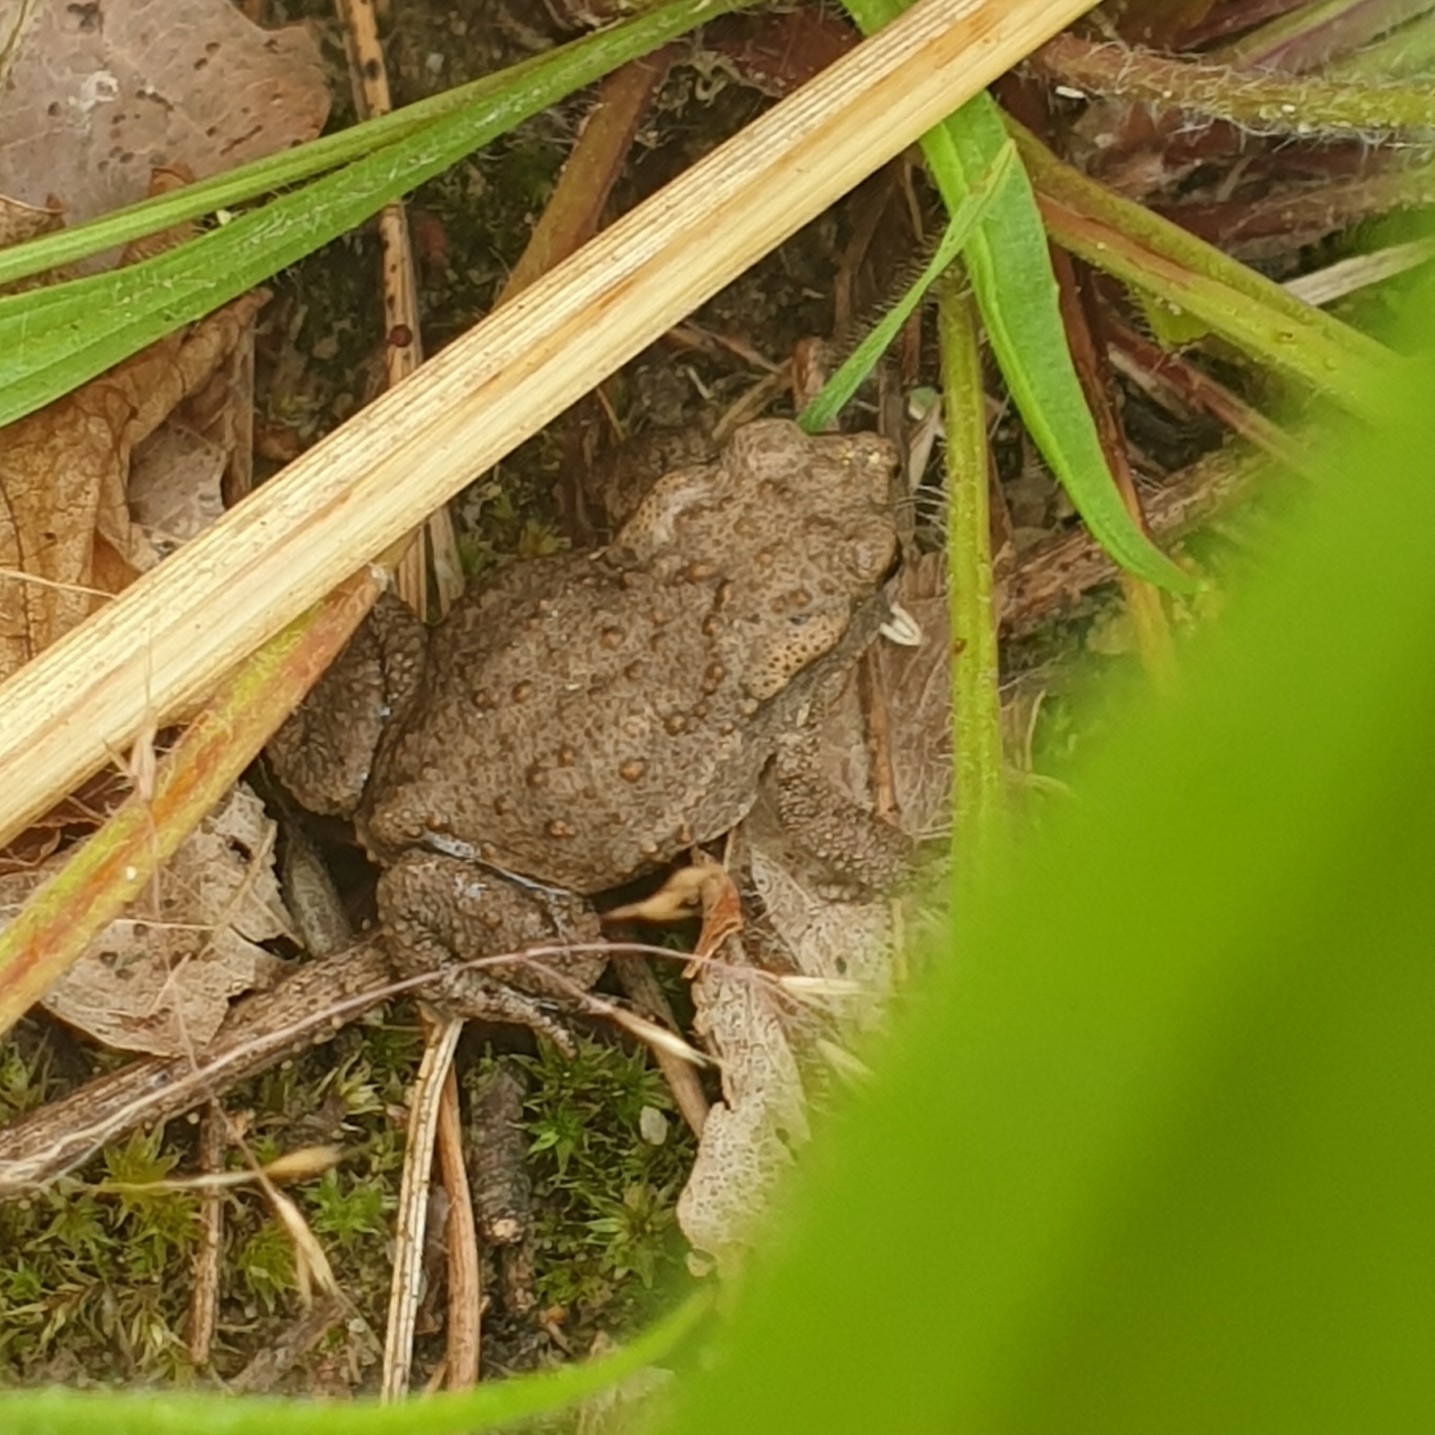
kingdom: Animalia
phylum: Chordata
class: Amphibia
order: Anura
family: Bufonidae
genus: Bufo
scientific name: Bufo bufo
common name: Common toad
